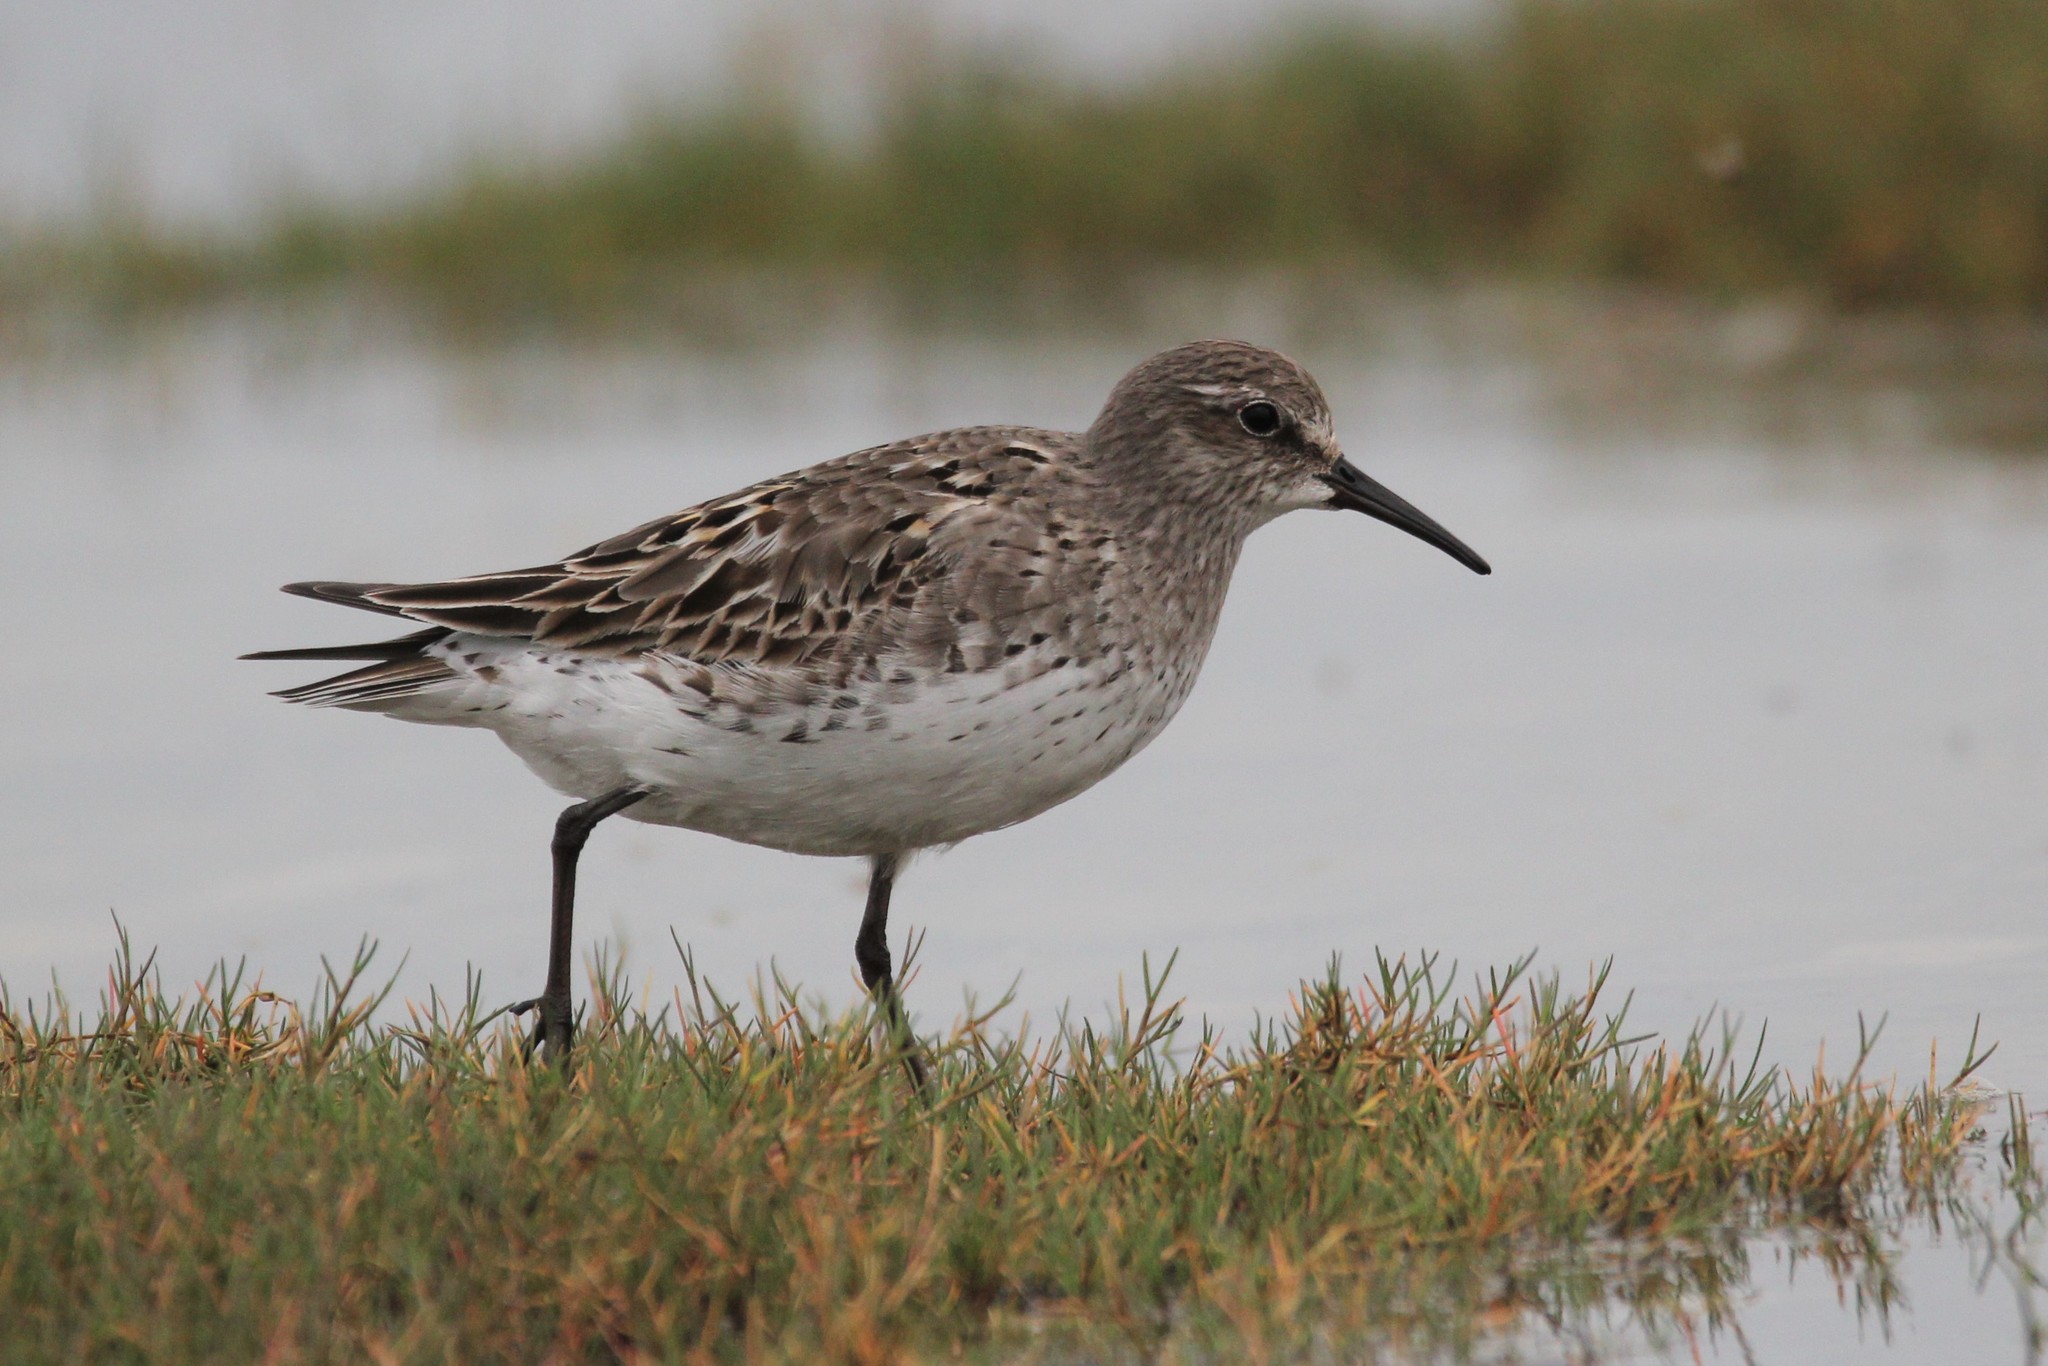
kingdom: Animalia
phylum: Chordata
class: Aves
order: Charadriiformes
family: Scolopacidae
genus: Calidris
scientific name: Calidris fuscicollis
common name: White-rumped sandpiper
